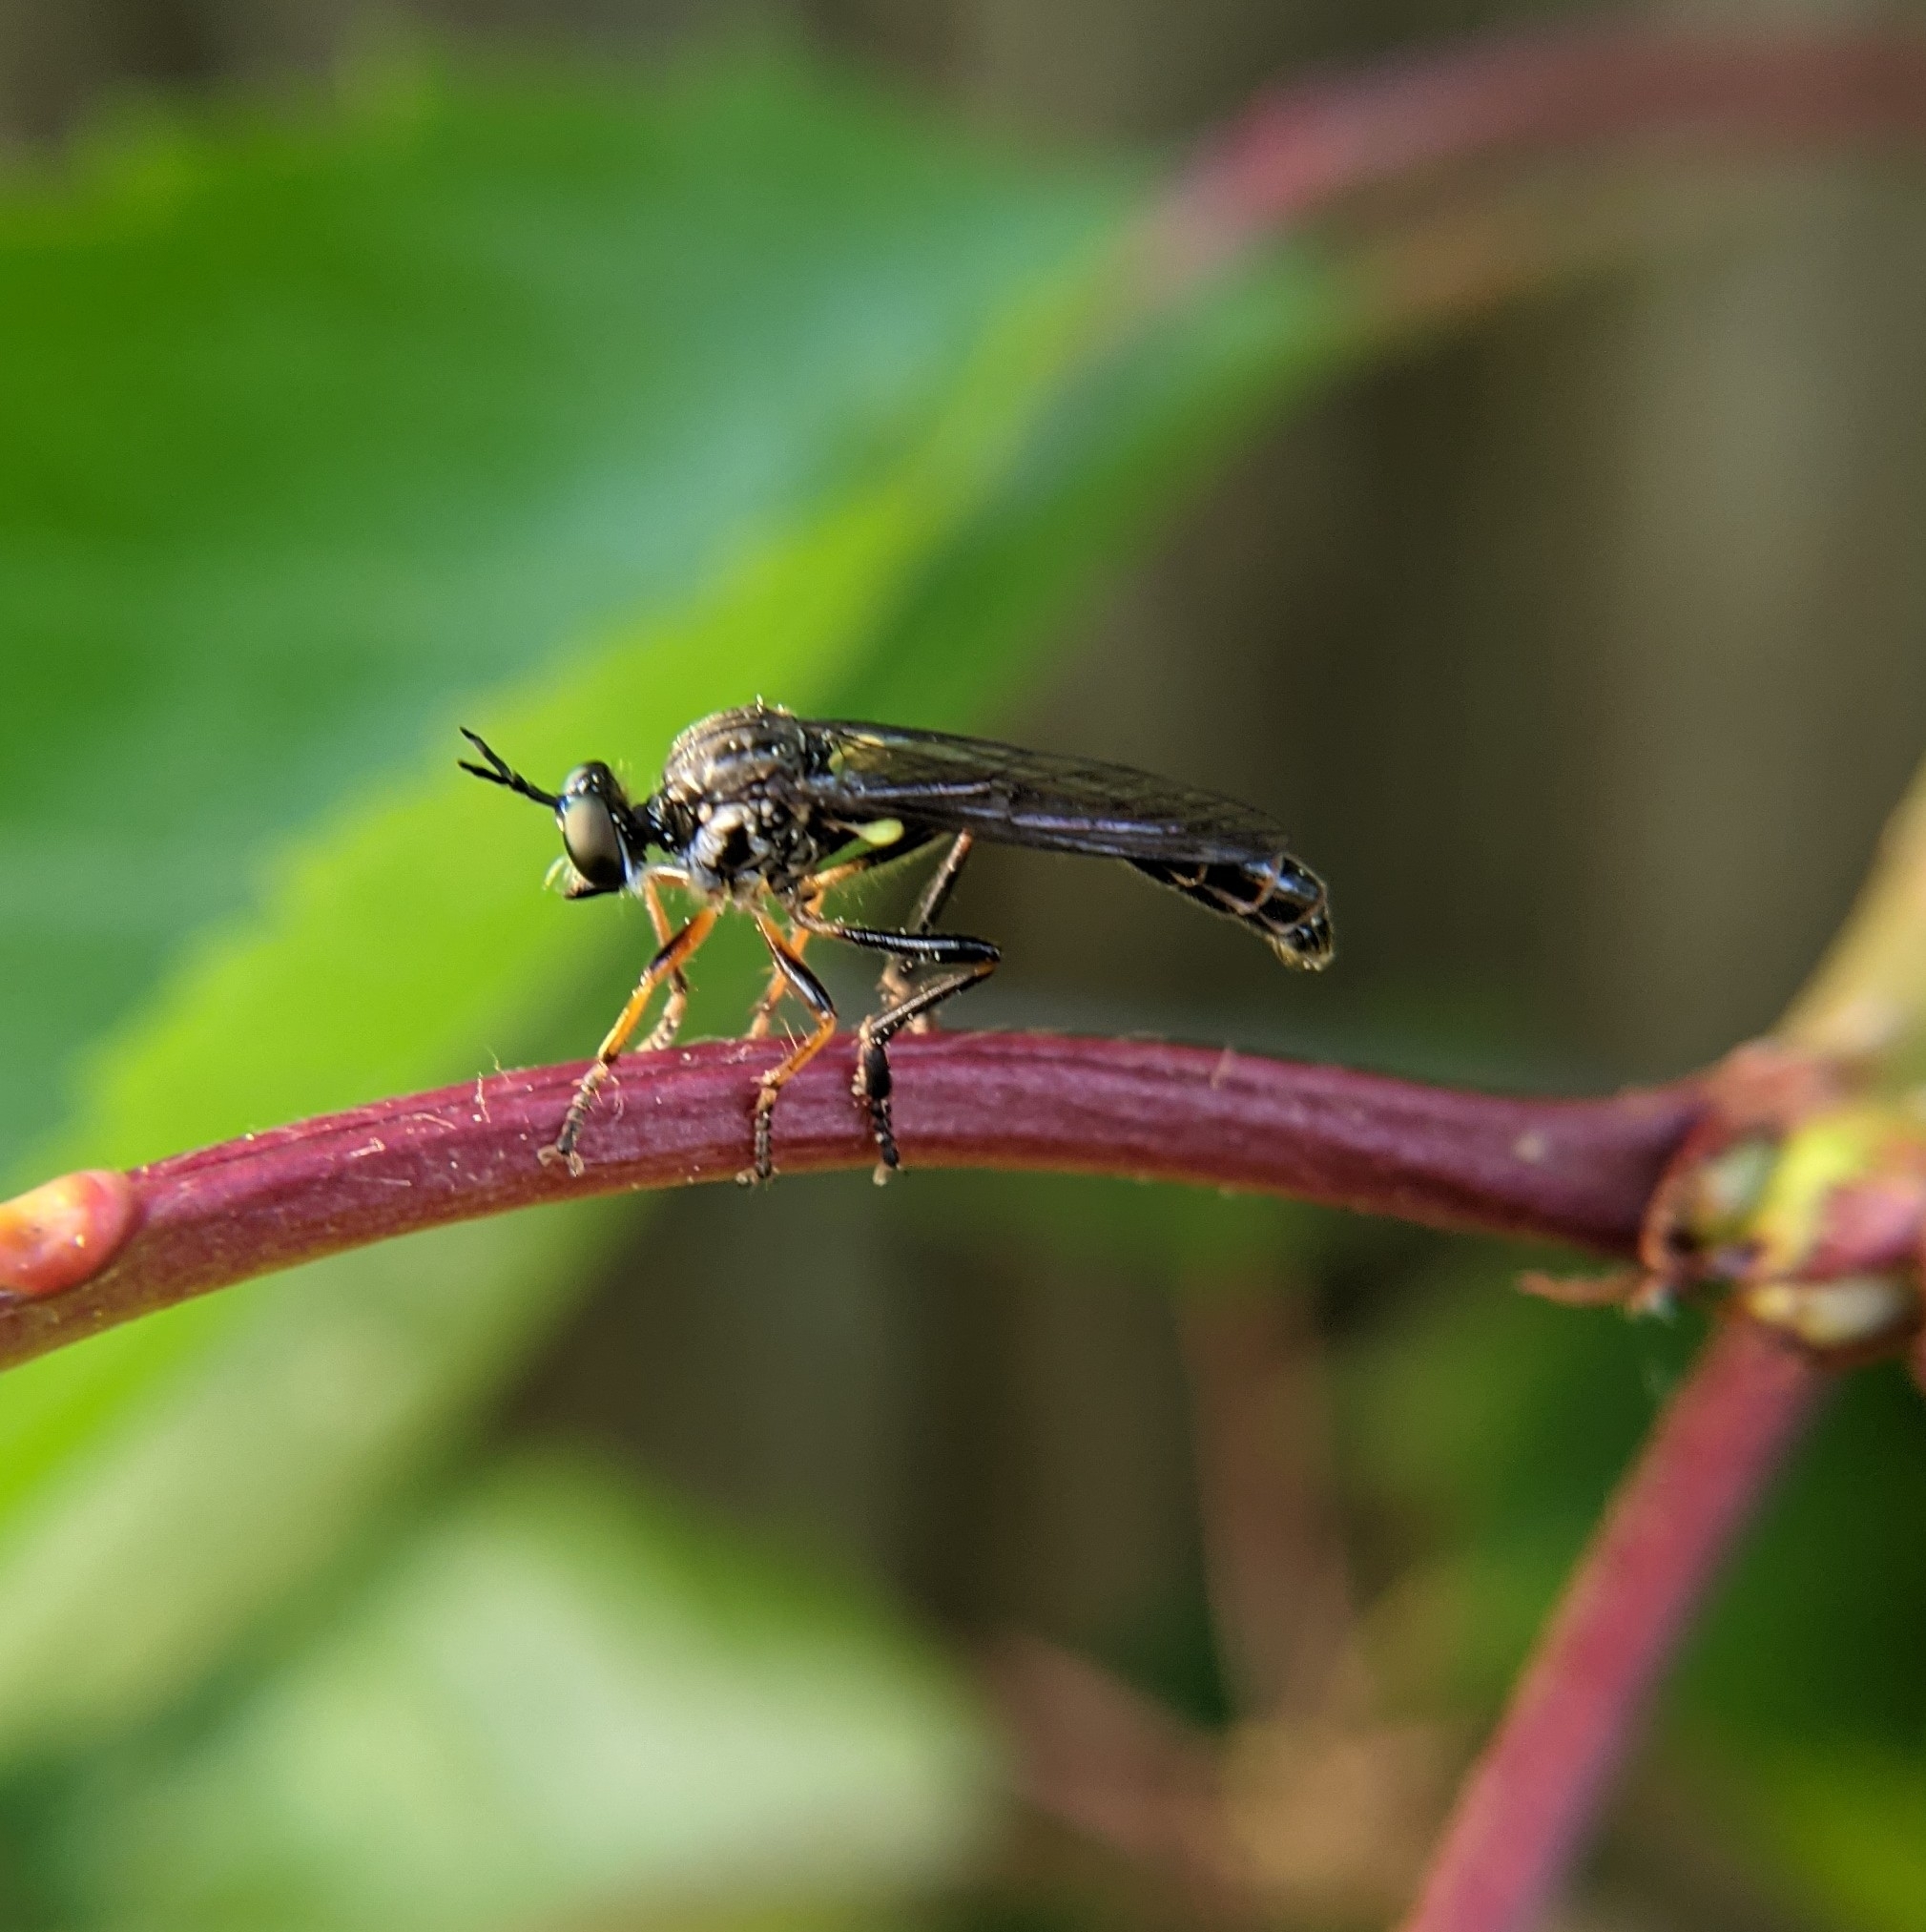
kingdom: Animalia
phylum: Arthropoda
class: Insecta
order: Diptera
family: Asilidae
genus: Dioctria
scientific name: Dioctria hyalipennis
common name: Stripe-legged robberfly
